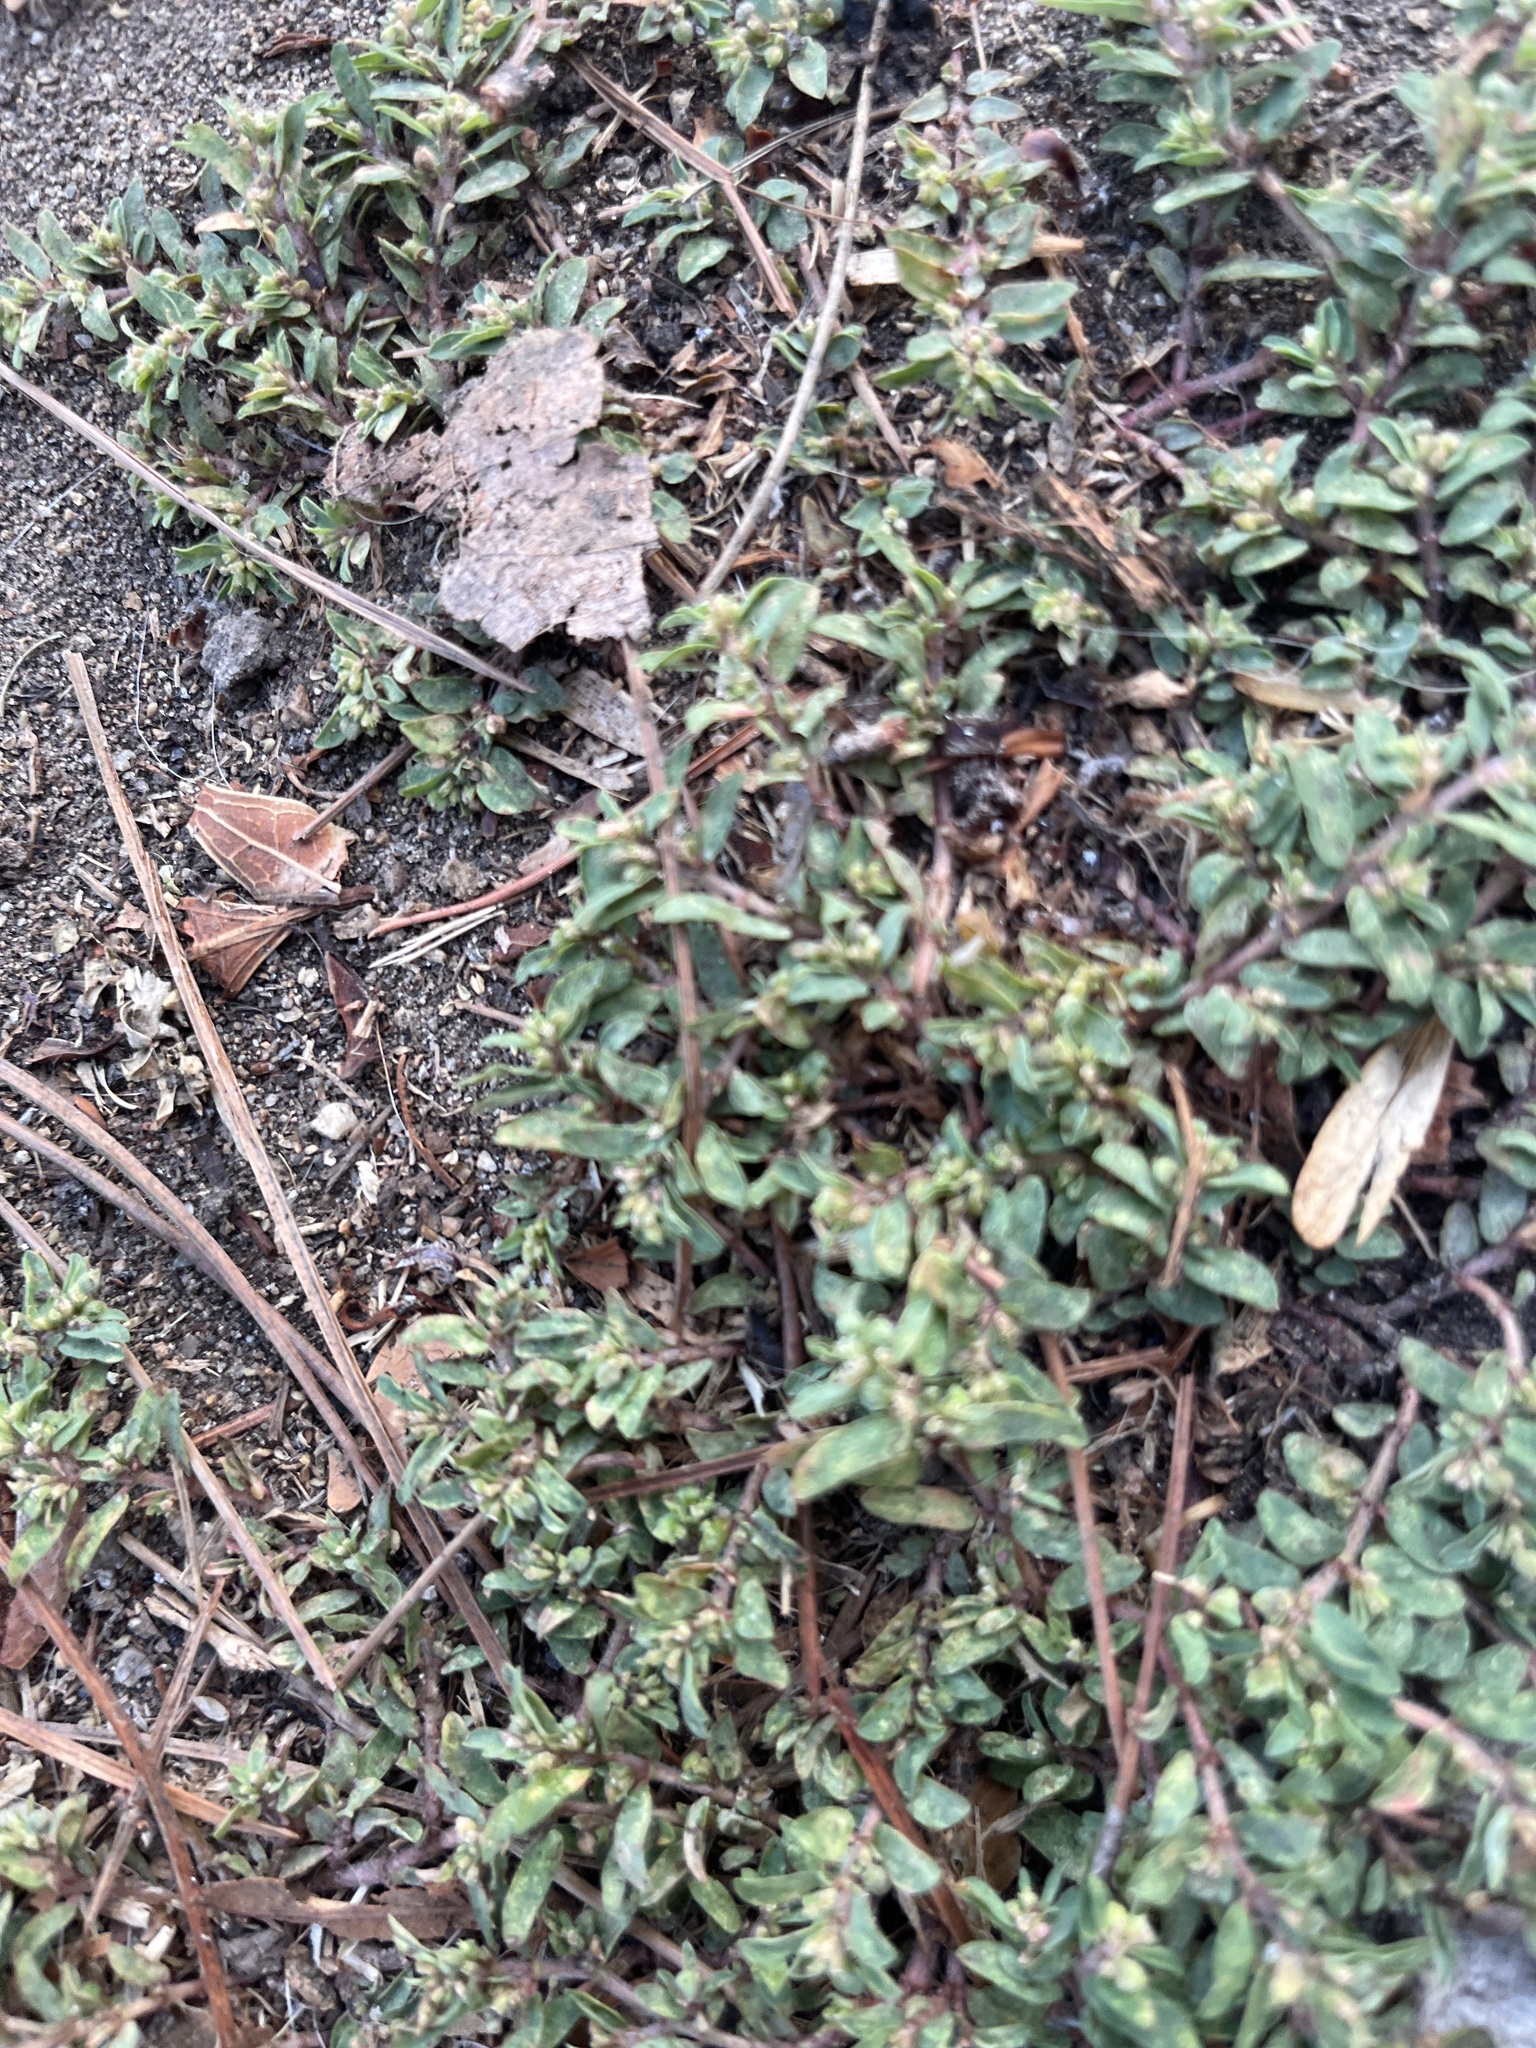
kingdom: Plantae
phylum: Tracheophyta
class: Magnoliopsida
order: Malpighiales
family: Euphorbiaceae
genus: Euphorbia
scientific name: Euphorbia maculata
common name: Spotted spurge
